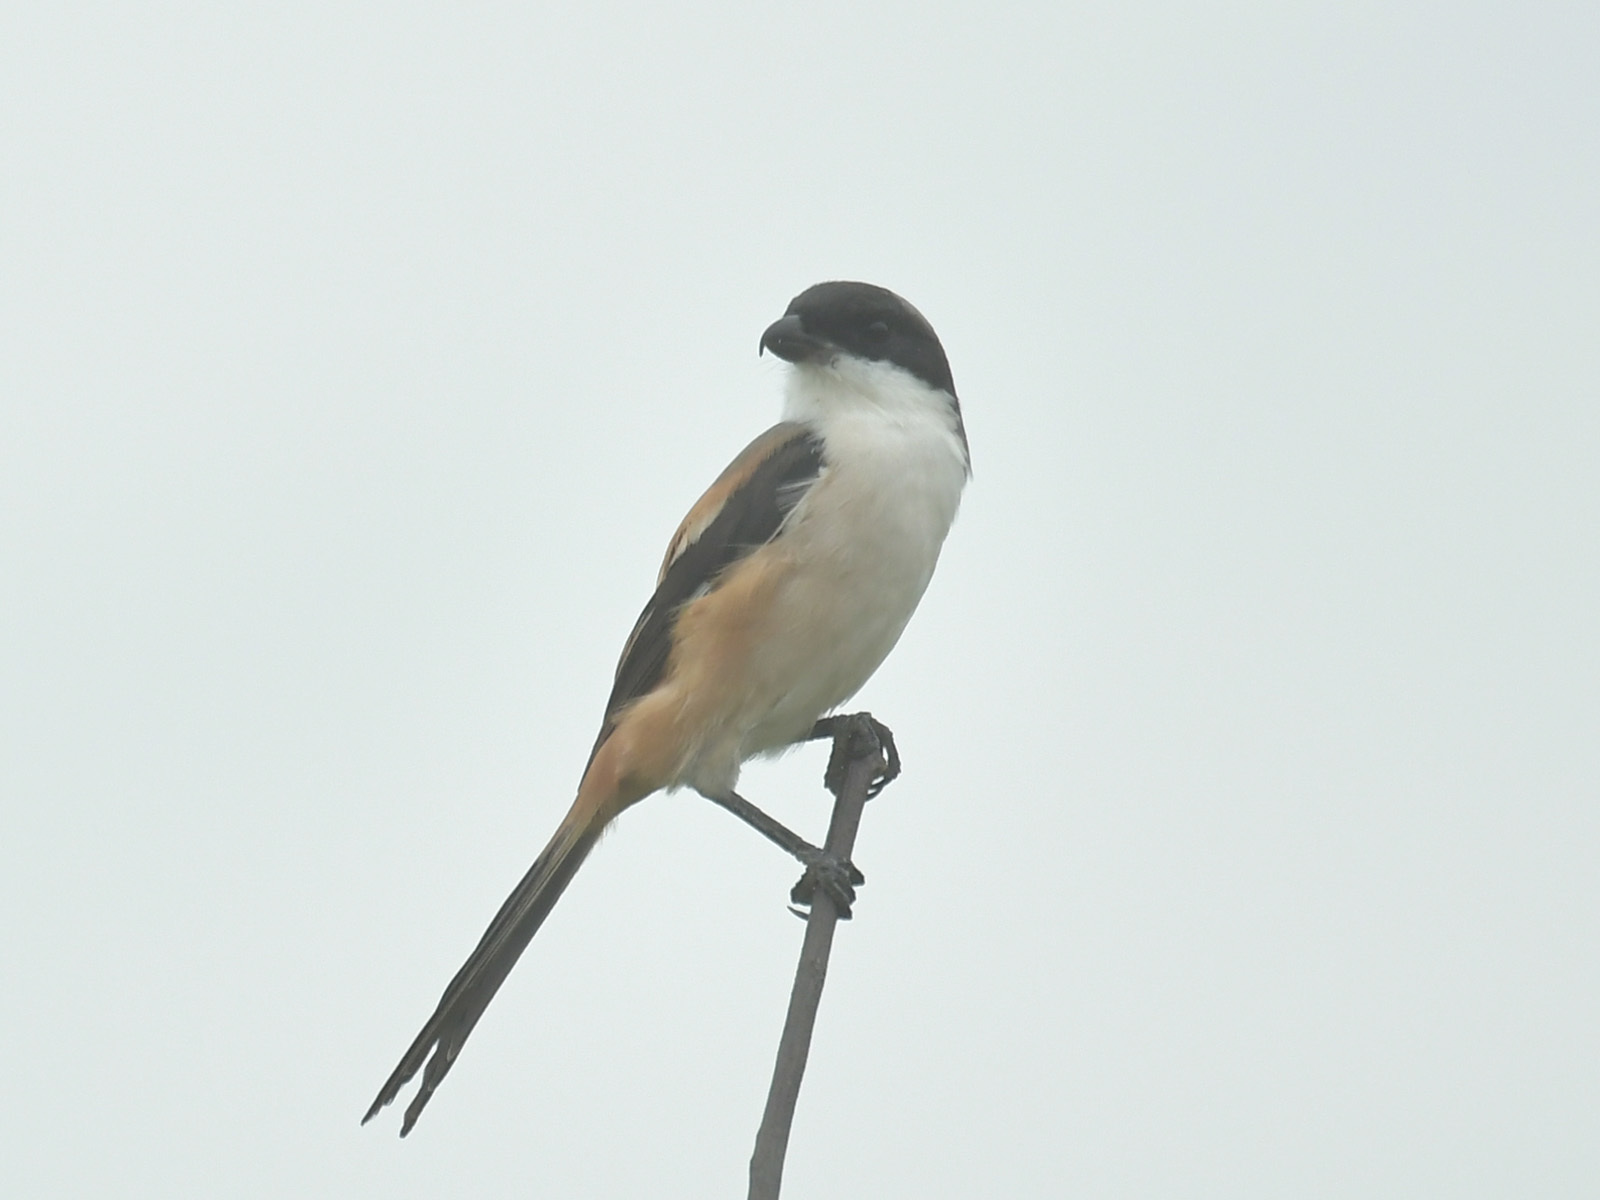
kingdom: Animalia
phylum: Chordata
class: Aves
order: Passeriformes
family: Laniidae
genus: Lanius
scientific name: Lanius schach
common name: Long-tailed shrike
